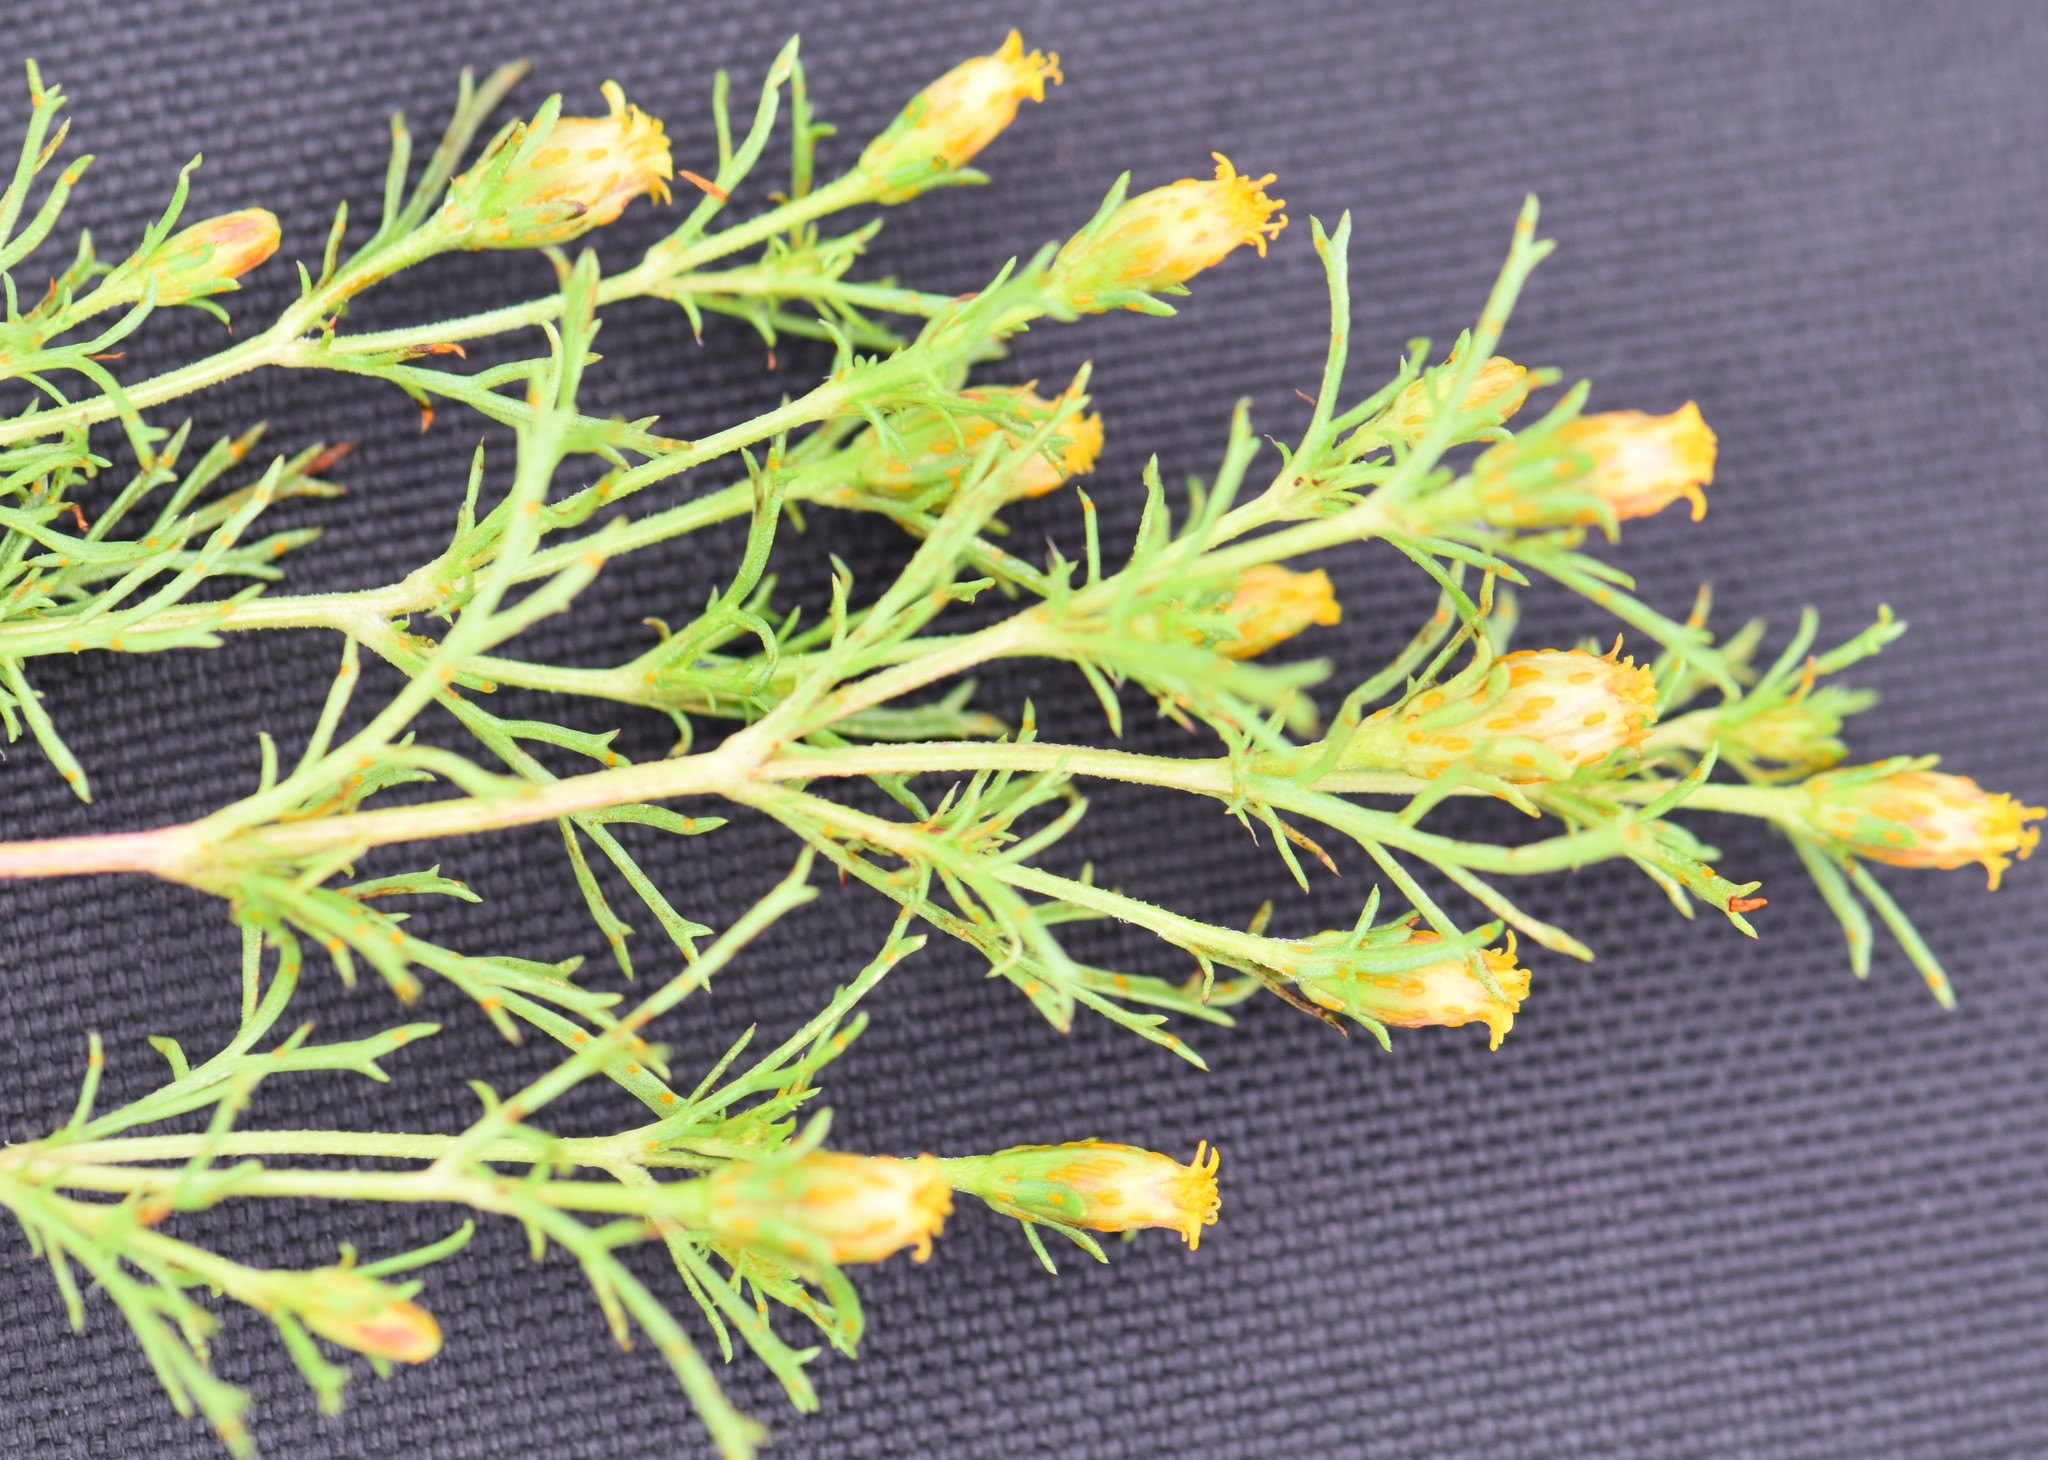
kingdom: Plantae
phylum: Tracheophyta
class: Magnoliopsida
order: Asterales
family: Asteraceae
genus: Dyssodia
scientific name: Dyssodia papposa
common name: Dogweed
